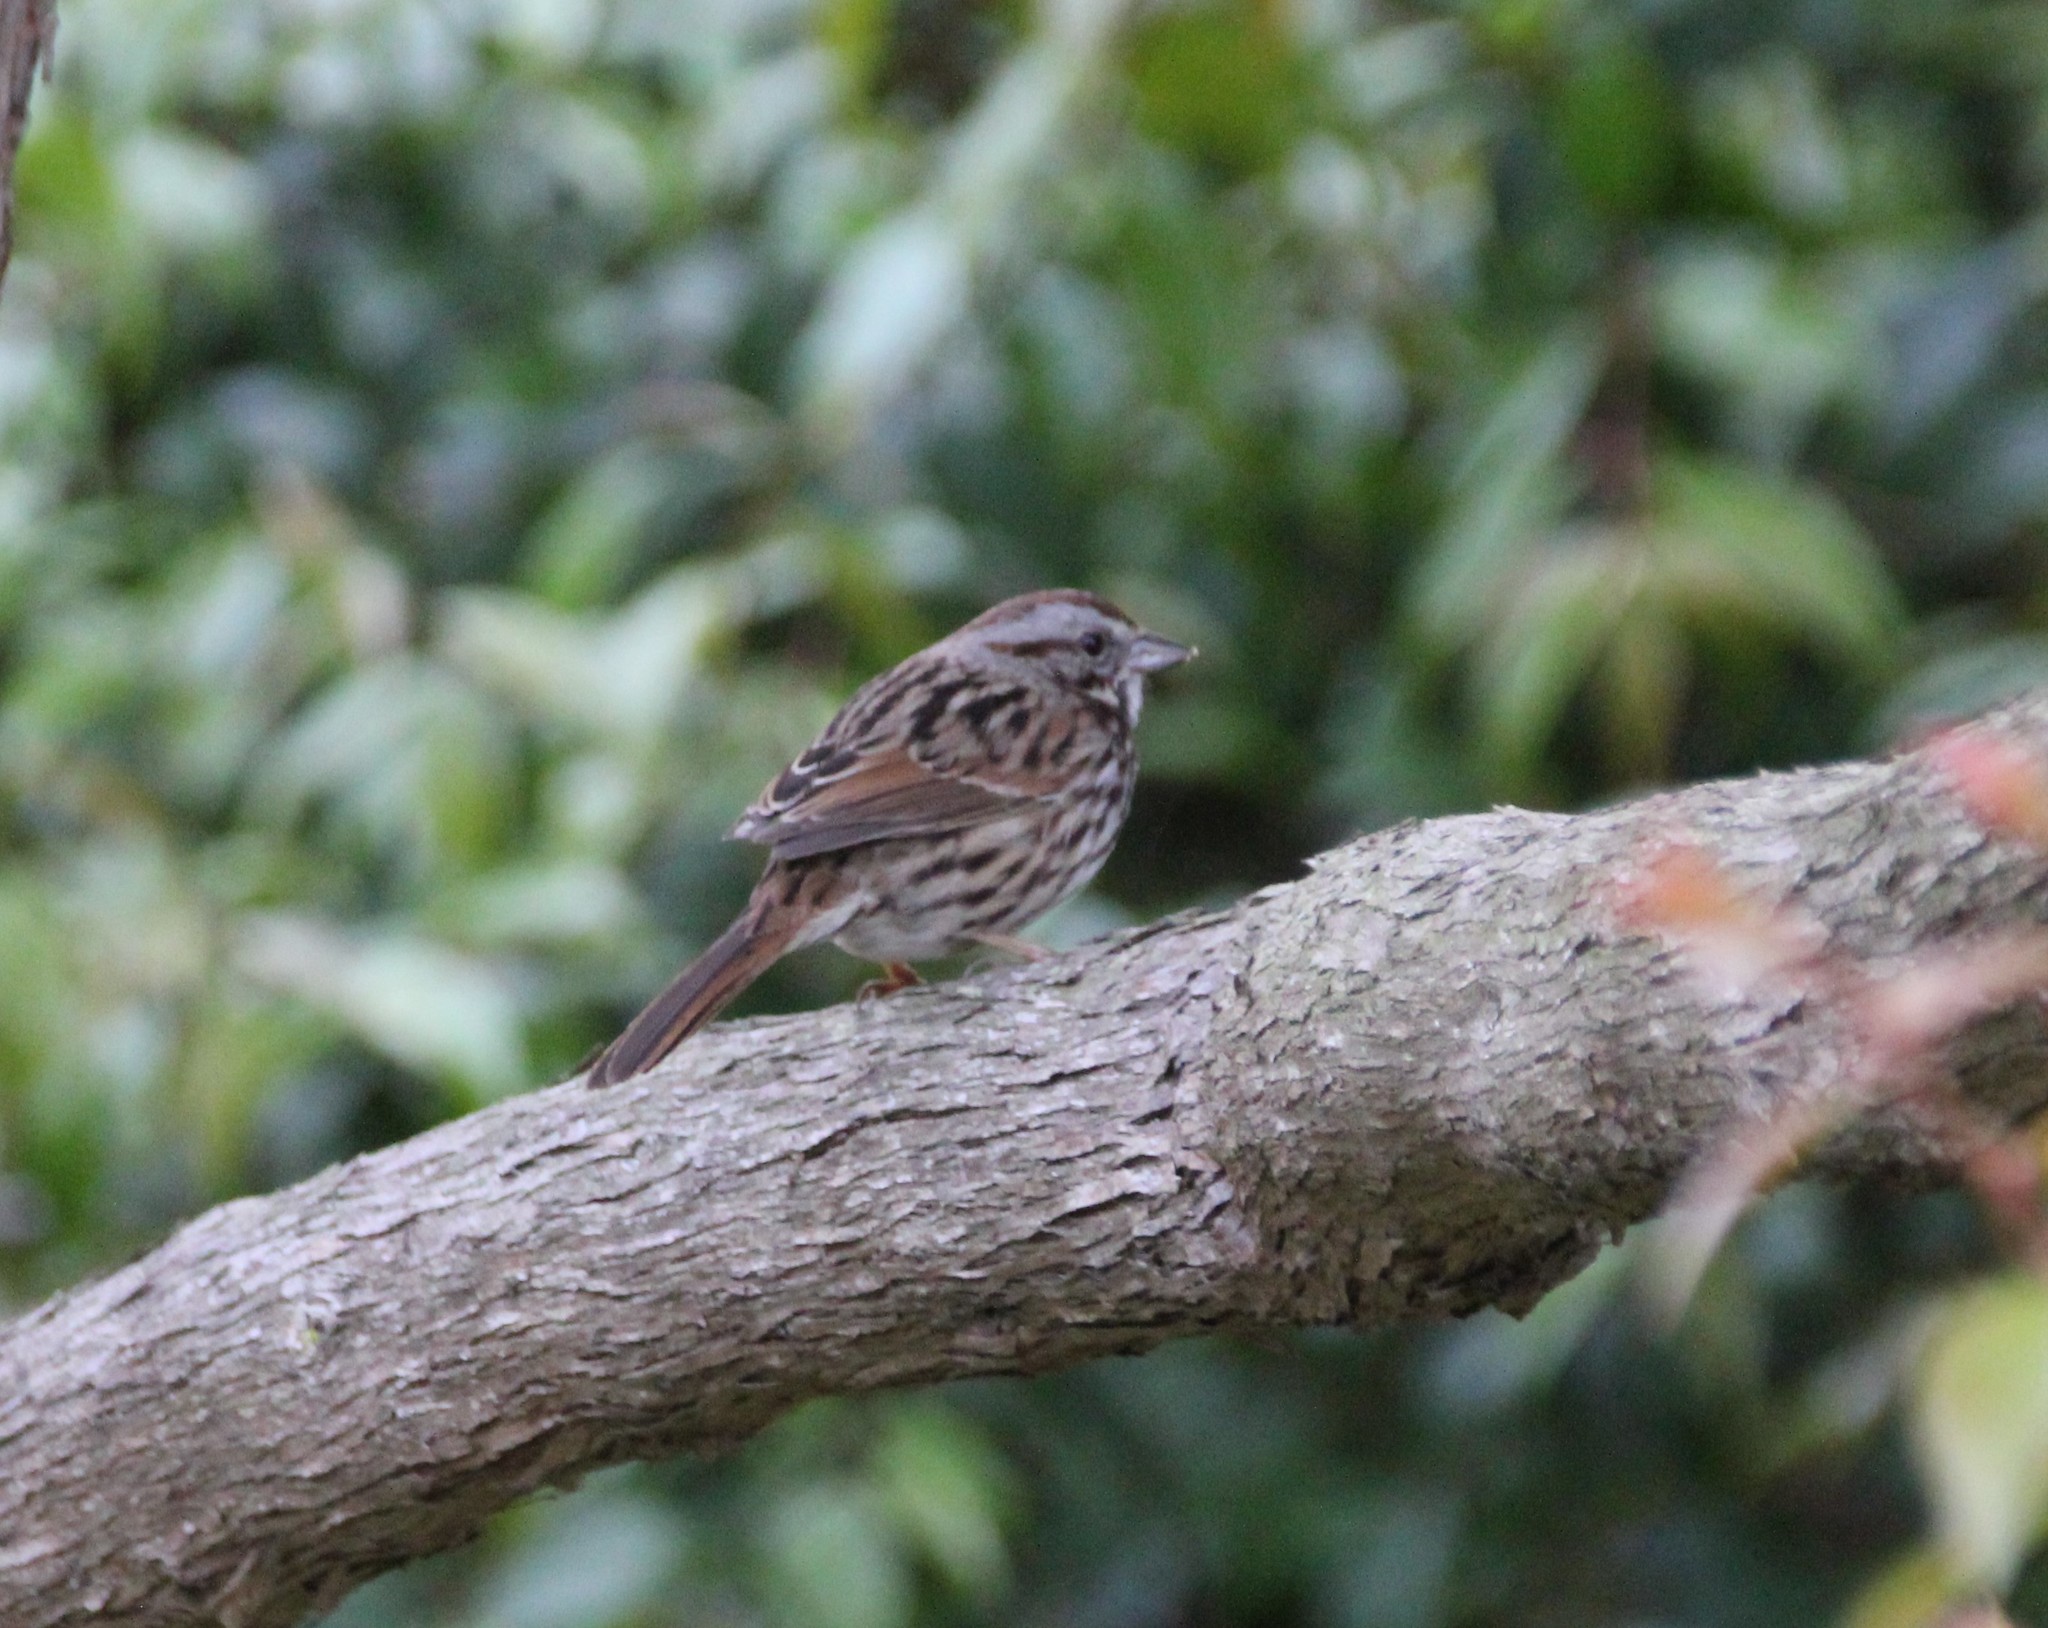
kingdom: Animalia
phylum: Chordata
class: Aves
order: Passeriformes
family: Passerellidae
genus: Melospiza
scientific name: Melospiza melodia
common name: Song sparrow
